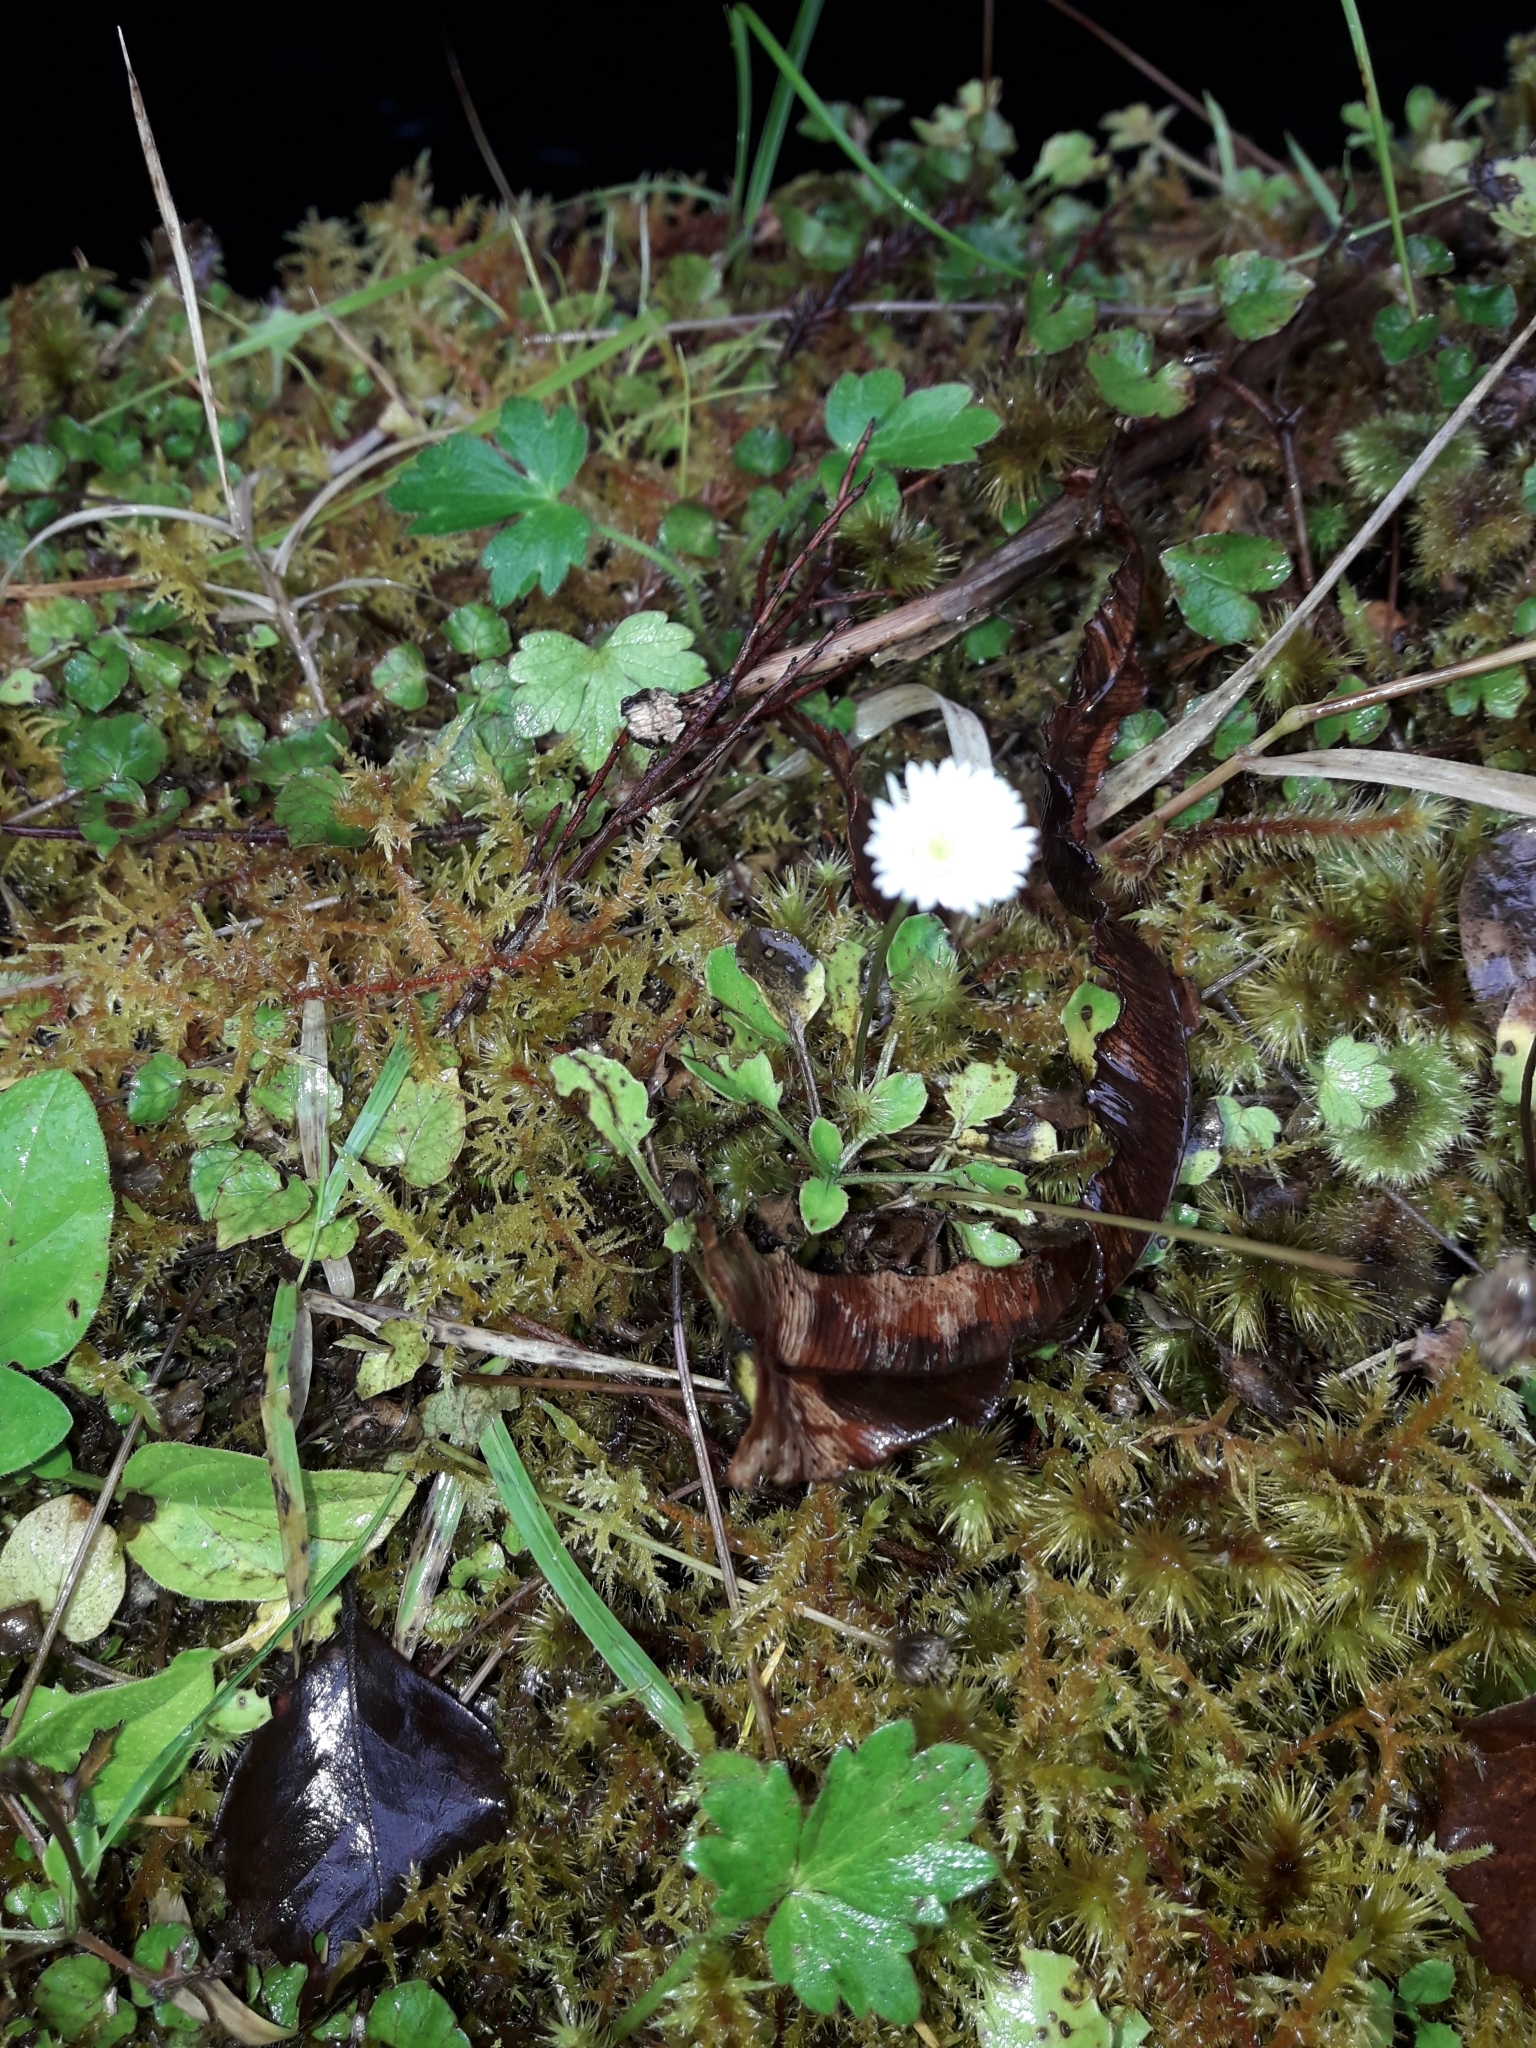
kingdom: Plantae
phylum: Tracheophyta
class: Magnoliopsida
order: Asterales
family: Asteraceae
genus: Lagenophora
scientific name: Lagenophora pumila
